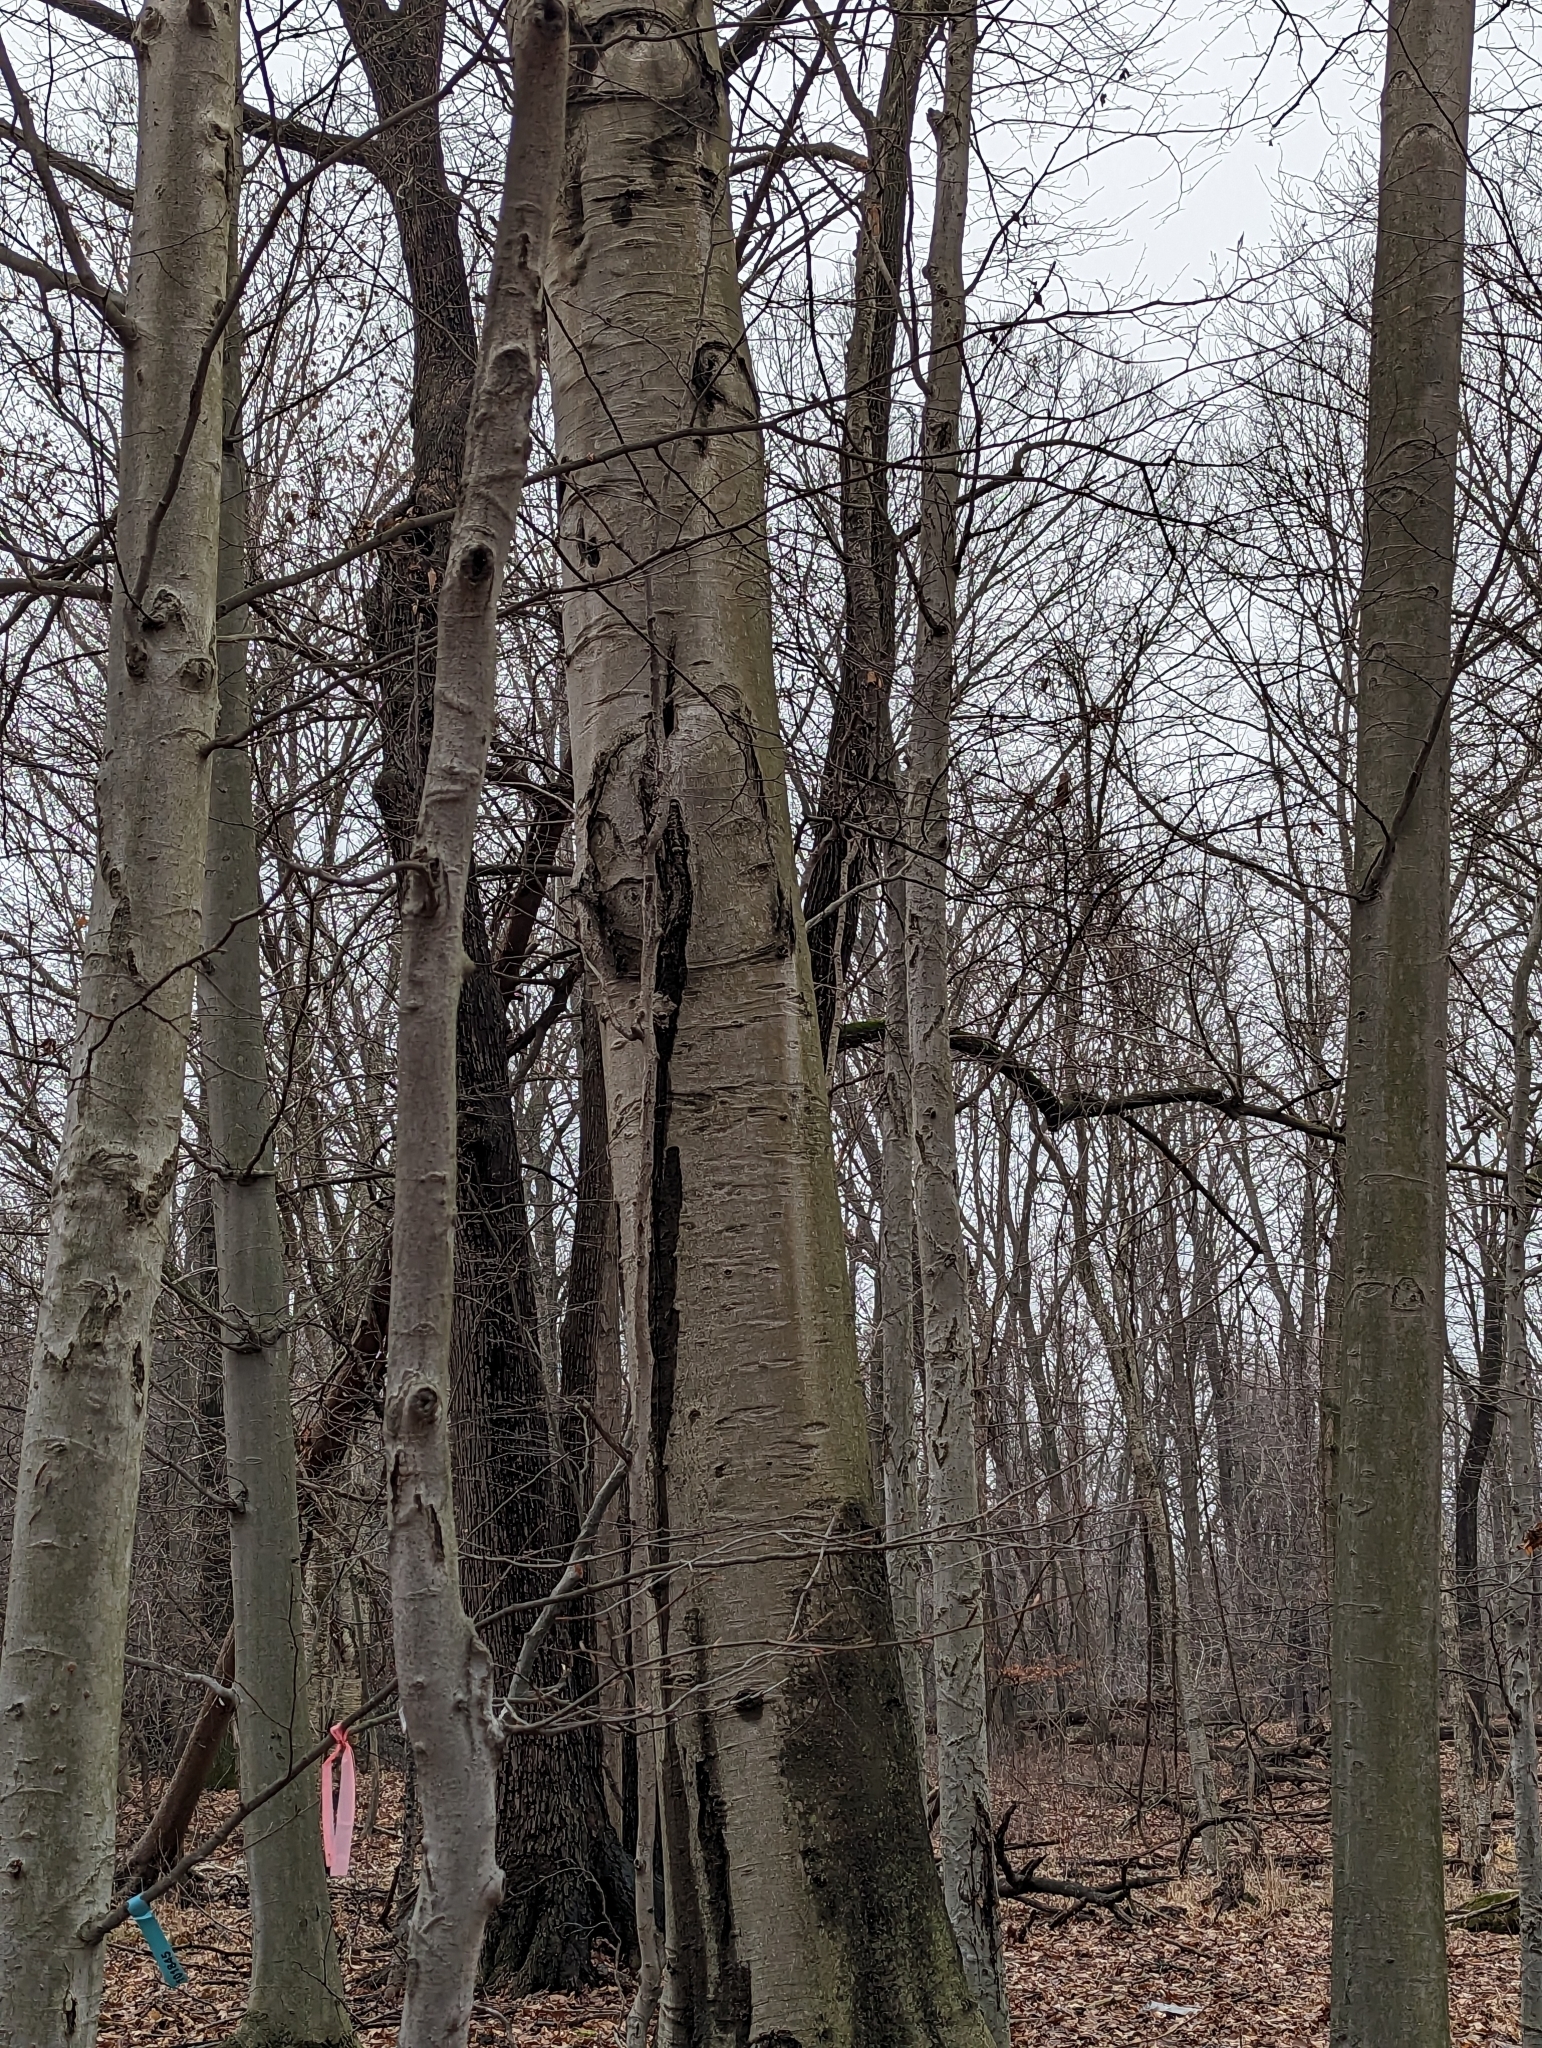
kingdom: Plantae
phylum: Tracheophyta
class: Magnoliopsida
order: Fagales
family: Fagaceae
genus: Fagus
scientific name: Fagus grandifolia
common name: American beech
